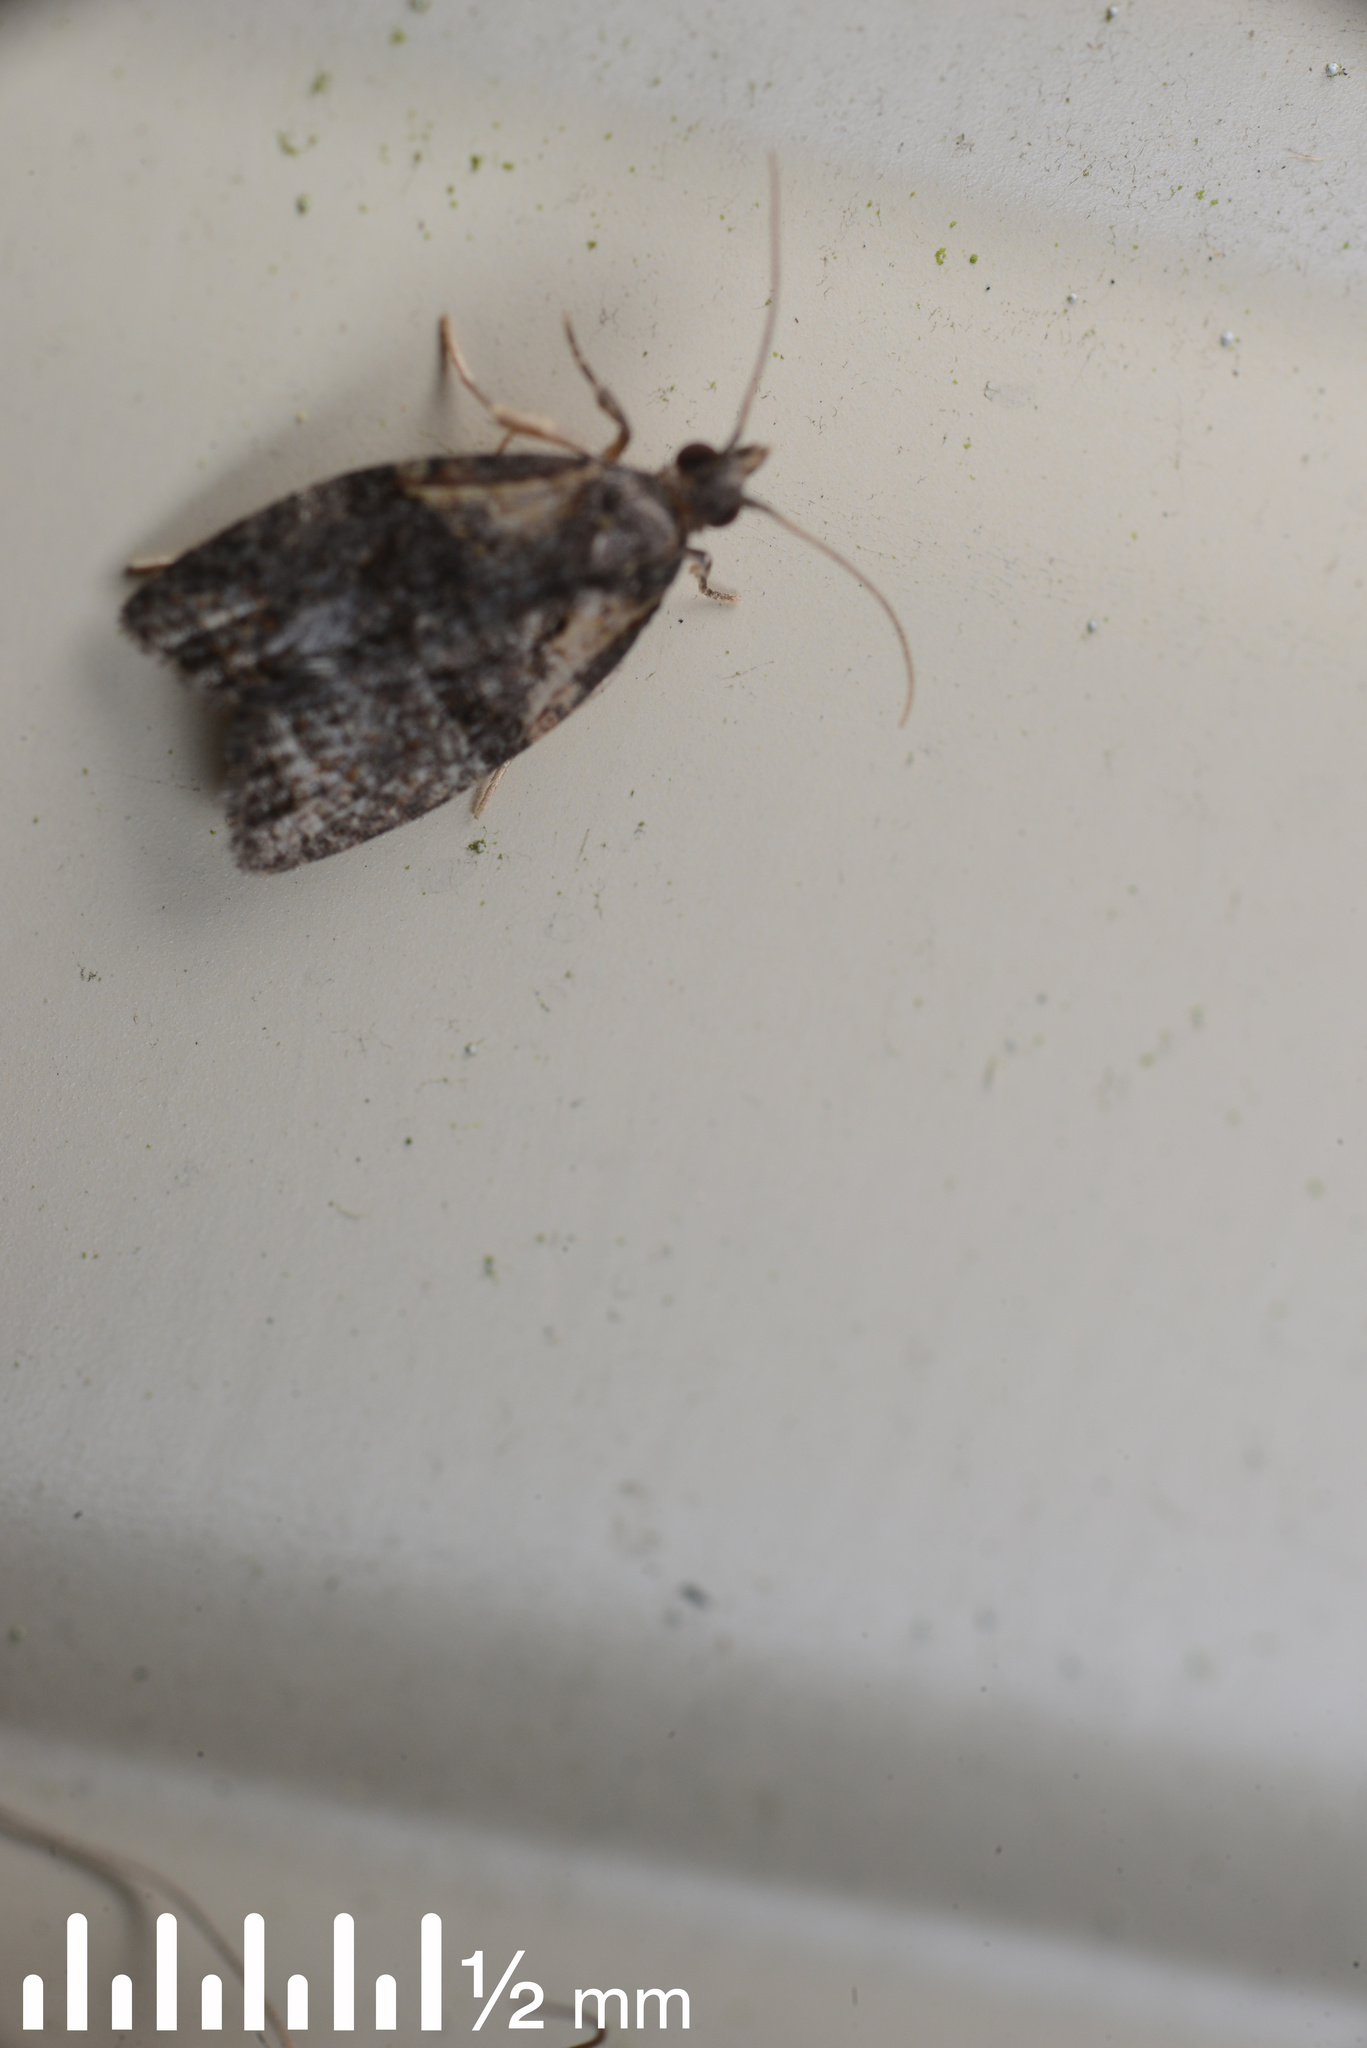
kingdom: Animalia
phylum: Arthropoda
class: Insecta
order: Lepidoptera
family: Tortricidae
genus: Capua
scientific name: Capua intractana
